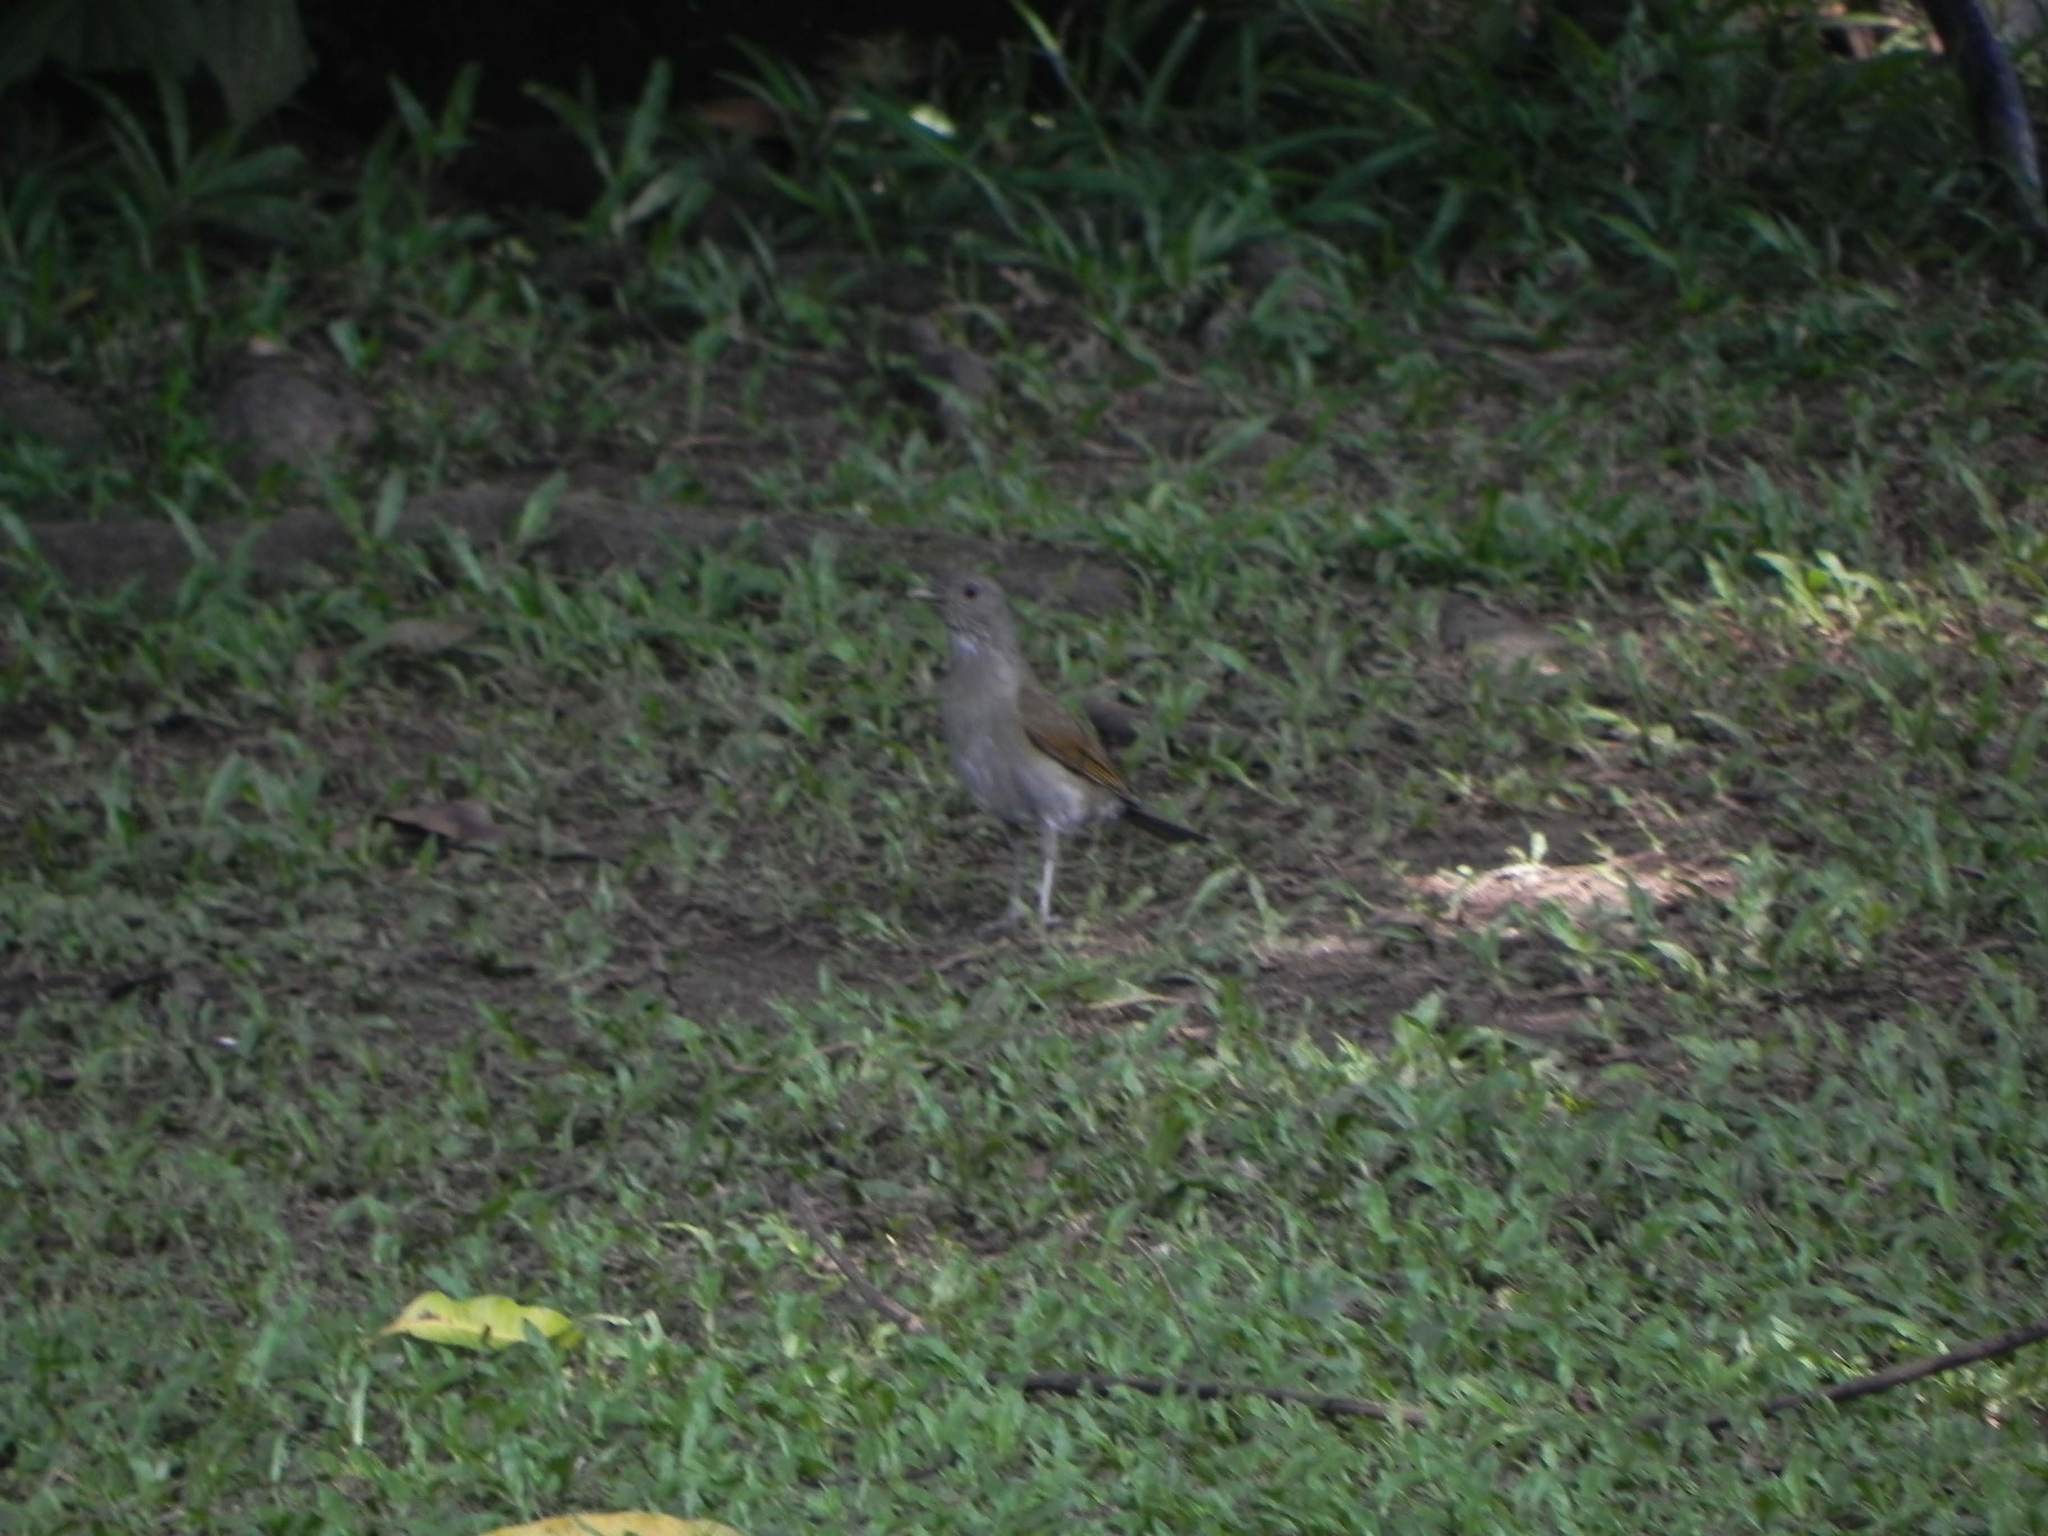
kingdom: Animalia
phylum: Chordata
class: Aves
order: Passeriformes
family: Turdidae
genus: Turdus
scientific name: Turdus leucomelas
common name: Pale-breasted thrush
